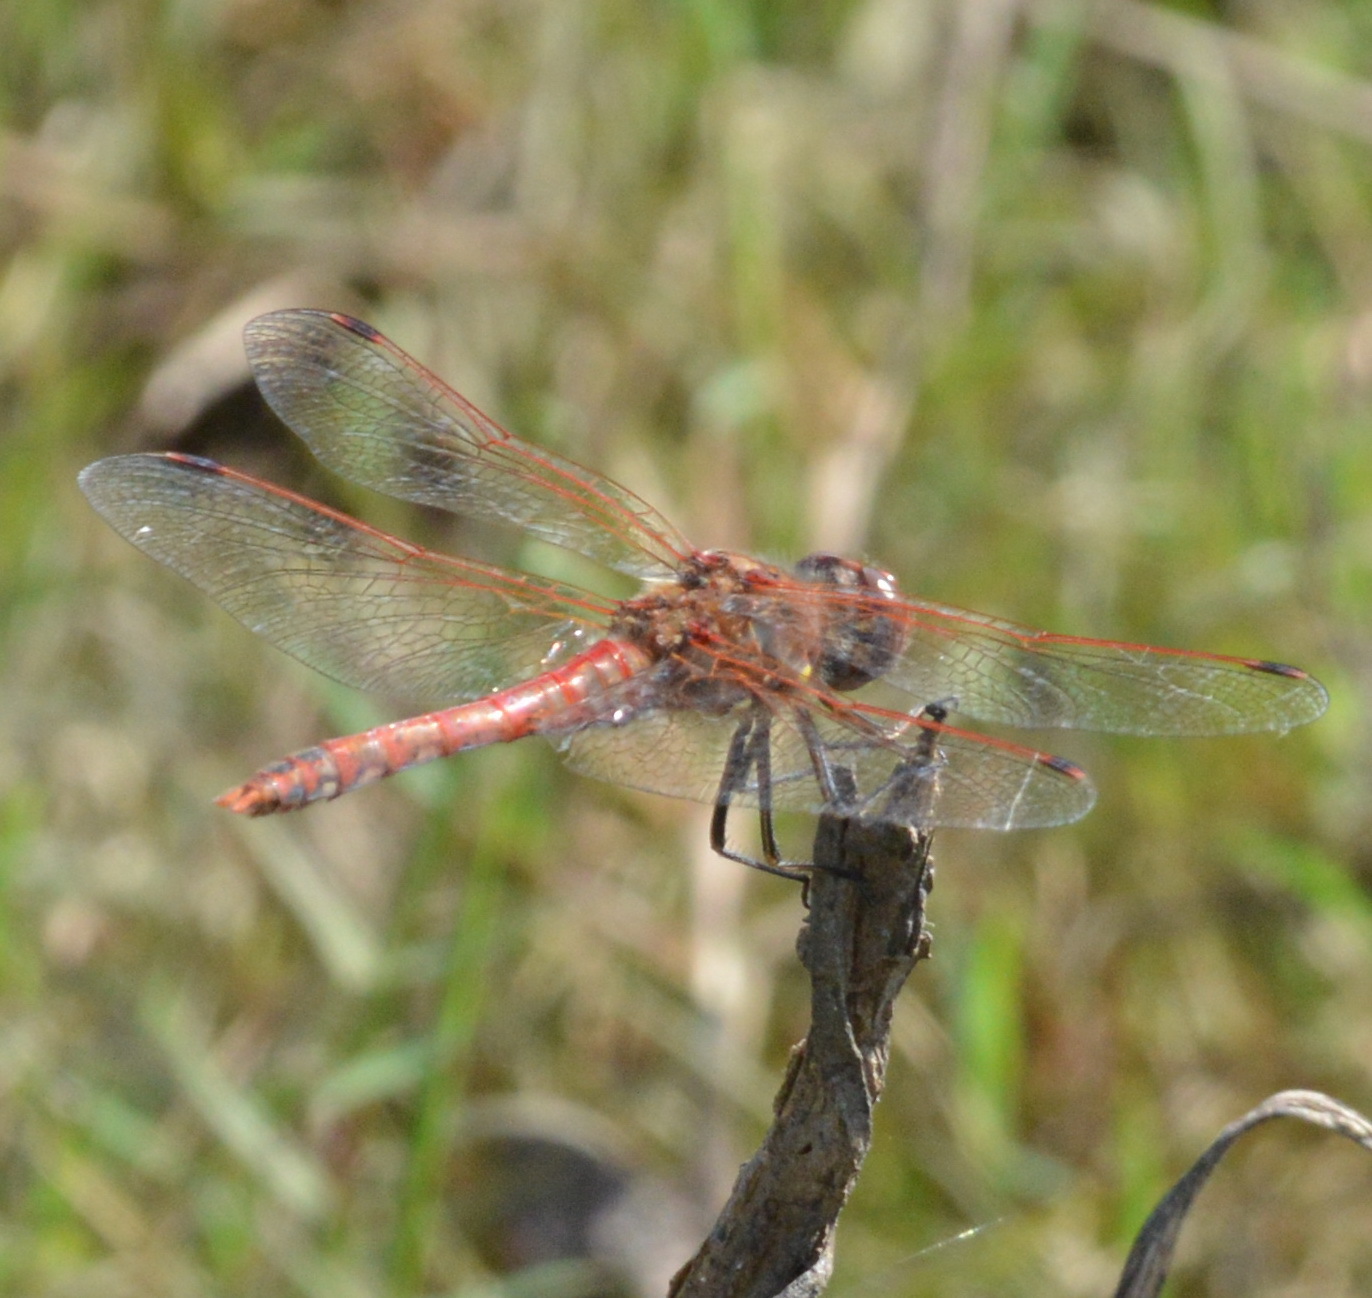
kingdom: Animalia
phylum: Arthropoda
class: Insecta
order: Odonata
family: Libellulidae
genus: Sympetrum
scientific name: Sympetrum corruptum
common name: Variegated meadowhawk
